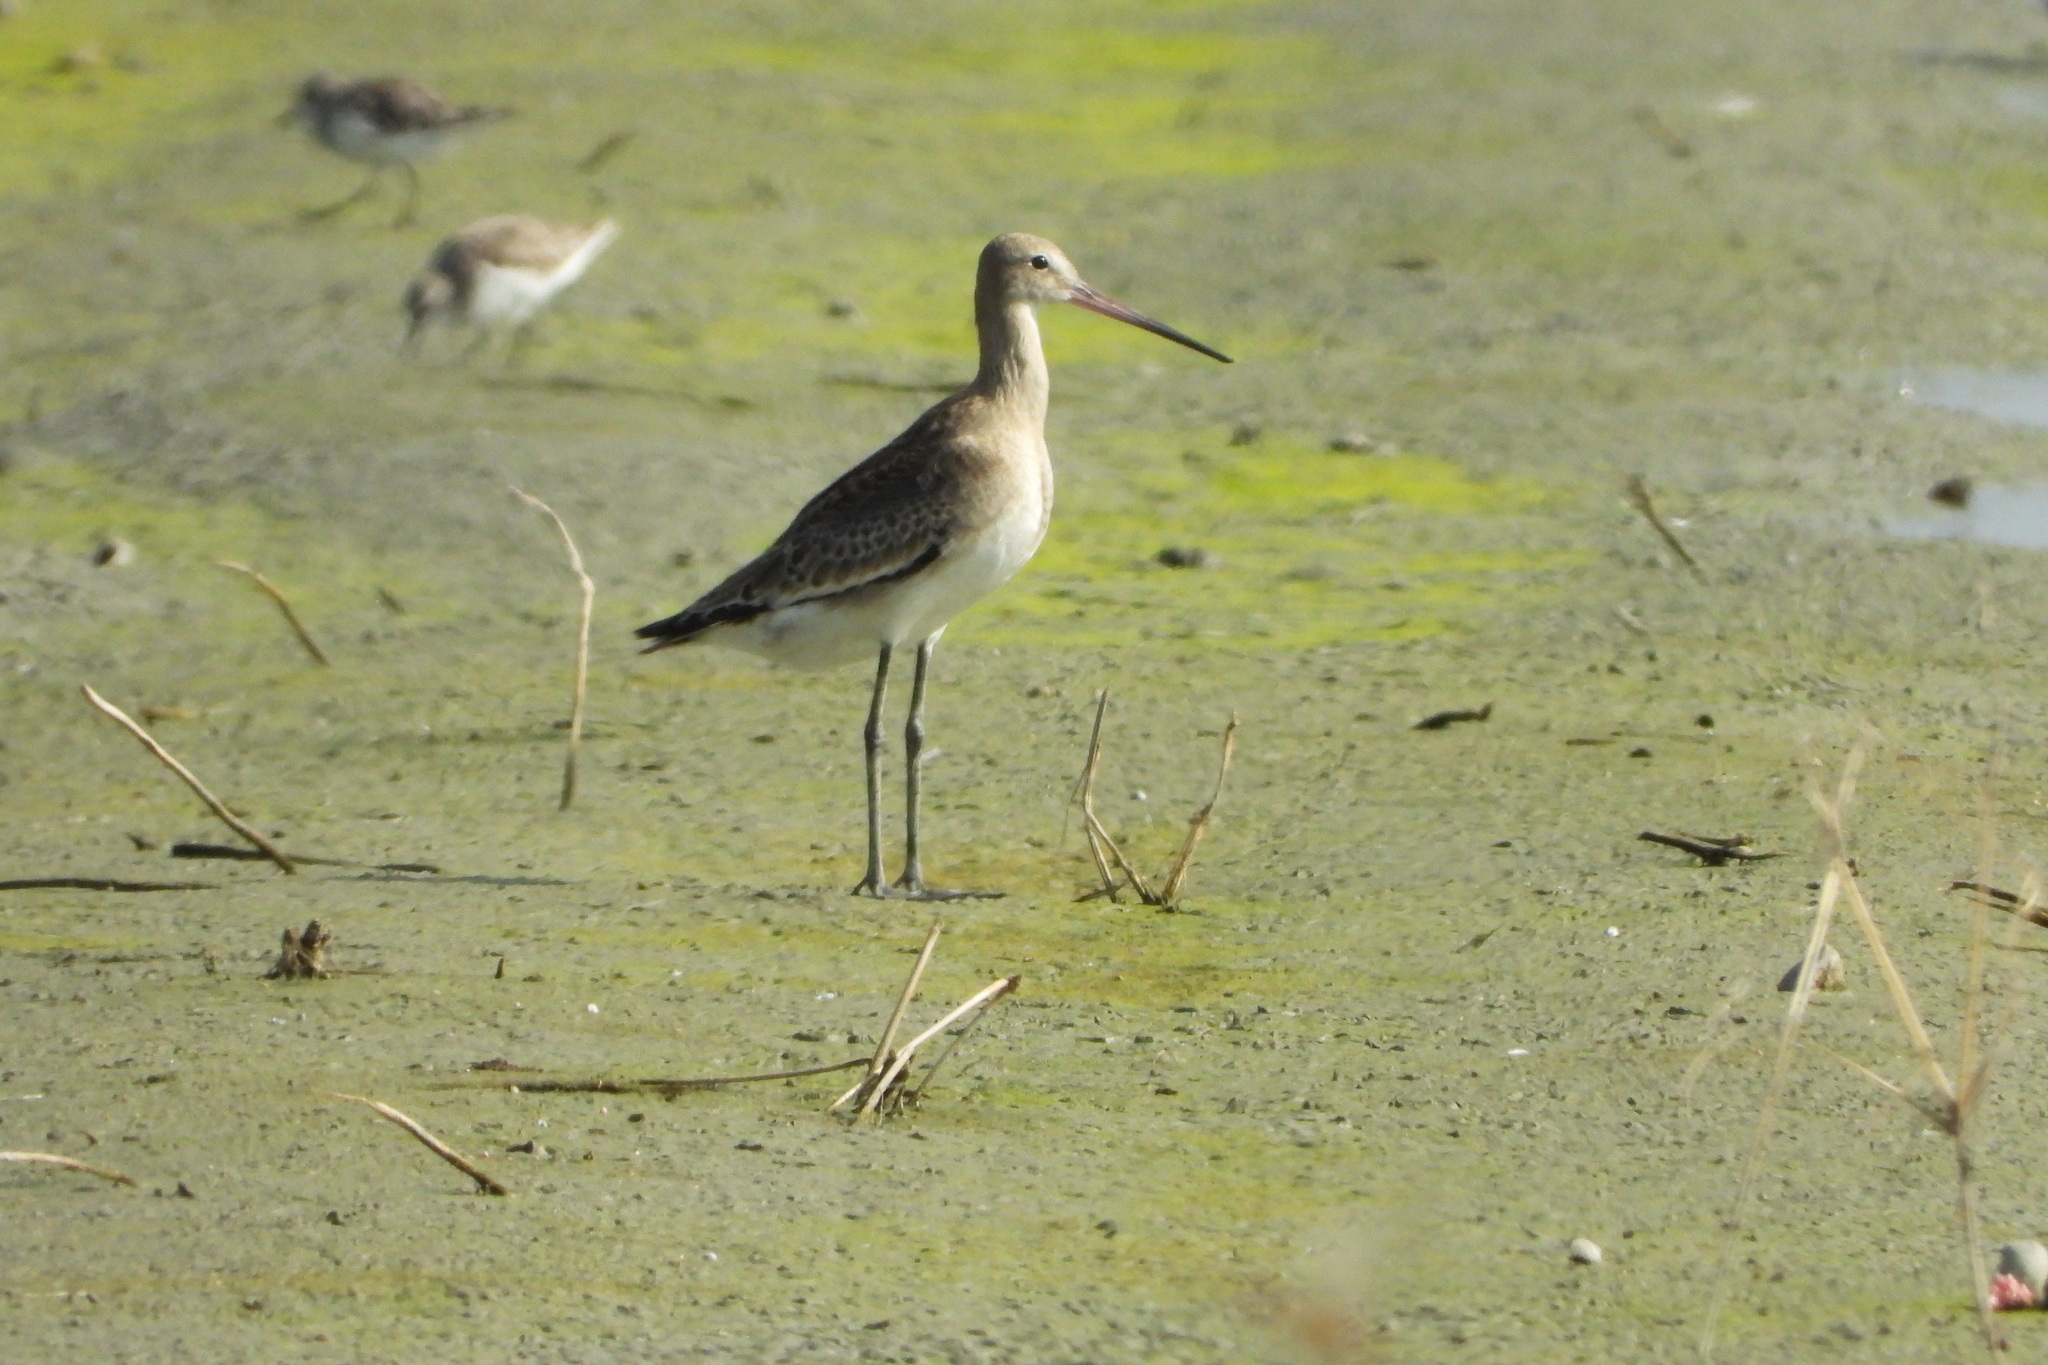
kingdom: Animalia
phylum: Chordata
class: Aves
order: Charadriiformes
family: Scolopacidae
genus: Limosa
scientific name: Limosa limosa
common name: Black-tailed godwit
